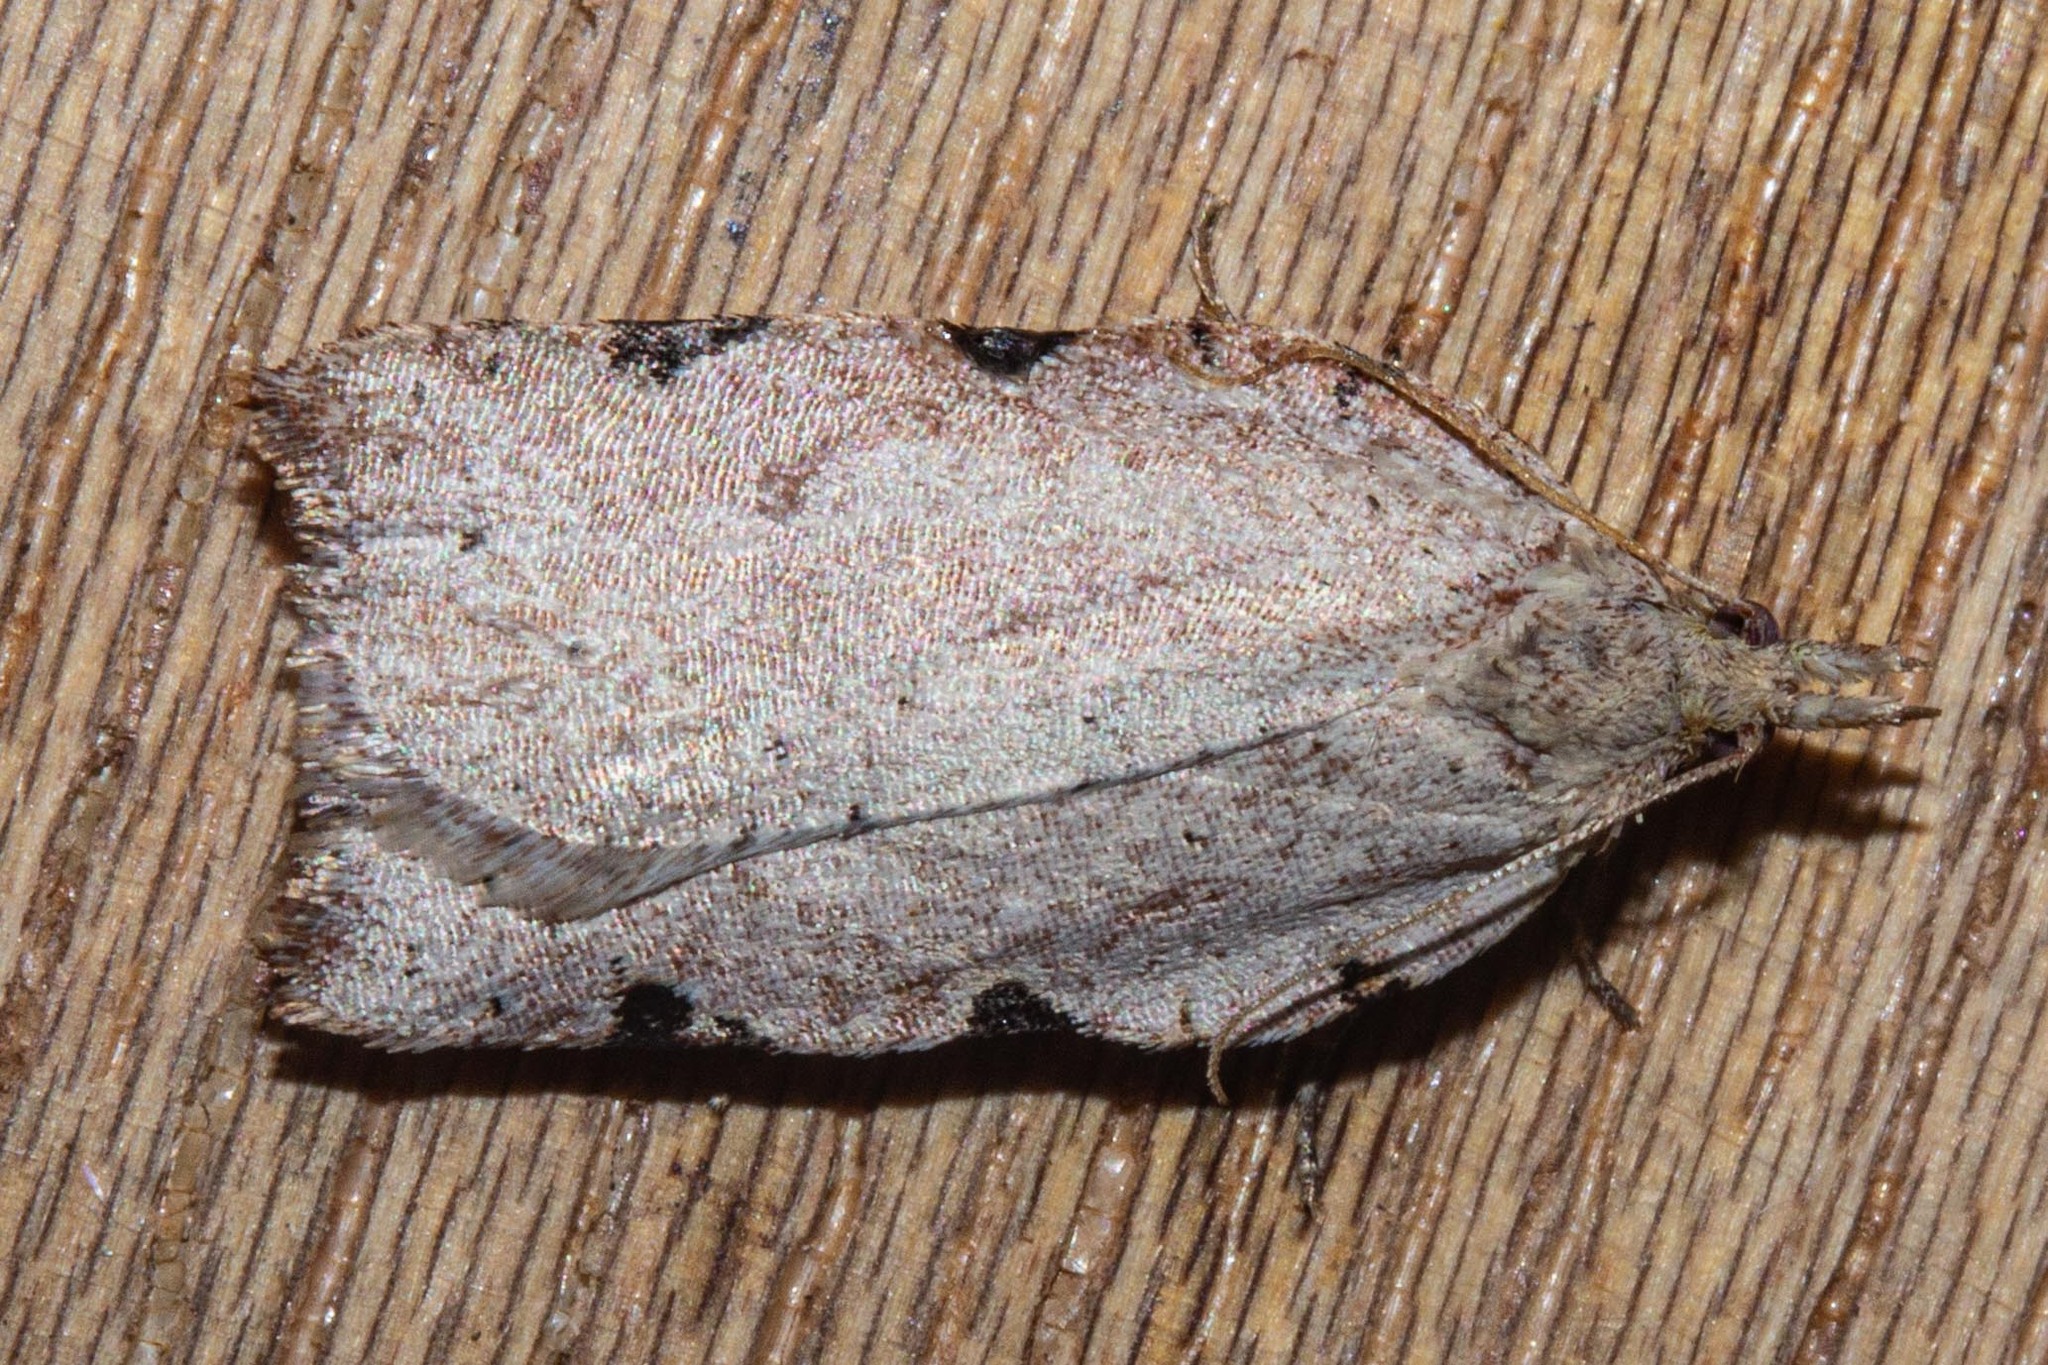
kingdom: Animalia
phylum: Arthropoda
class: Insecta
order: Lepidoptera
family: Tortricidae
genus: Apoctena
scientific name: Apoctena flavescens
